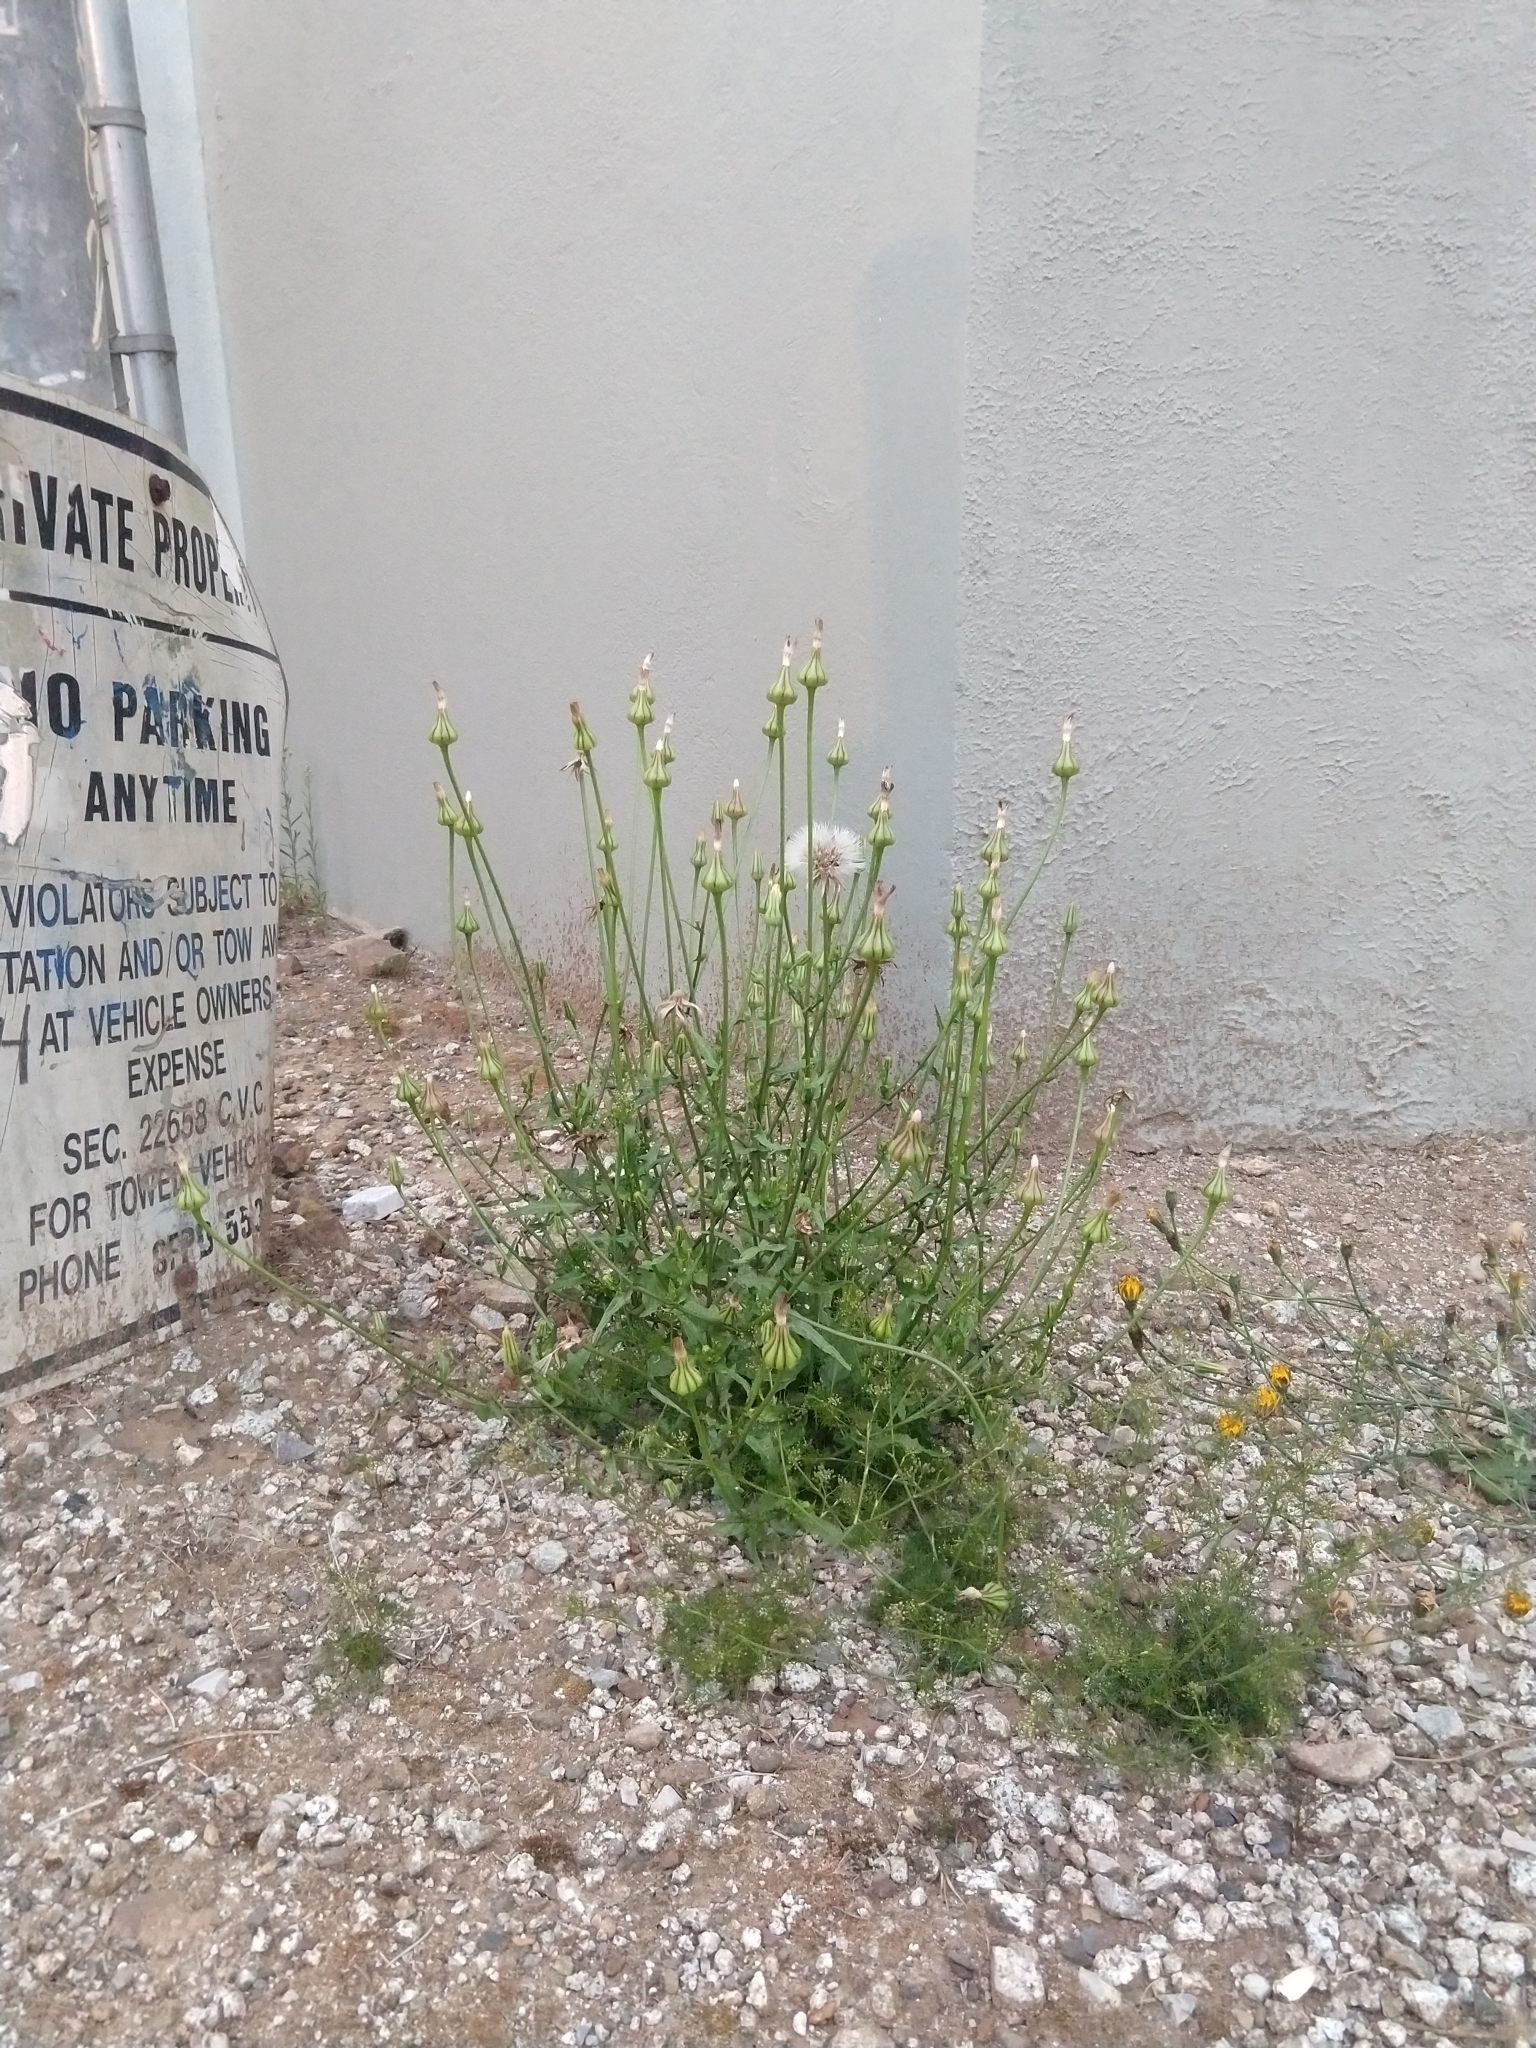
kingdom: Plantae
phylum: Tracheophyta
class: Magnoliopsida
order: Asterales
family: Asteraceae
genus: Urospermum
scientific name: Urospermum picroides
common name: False hawkbit
